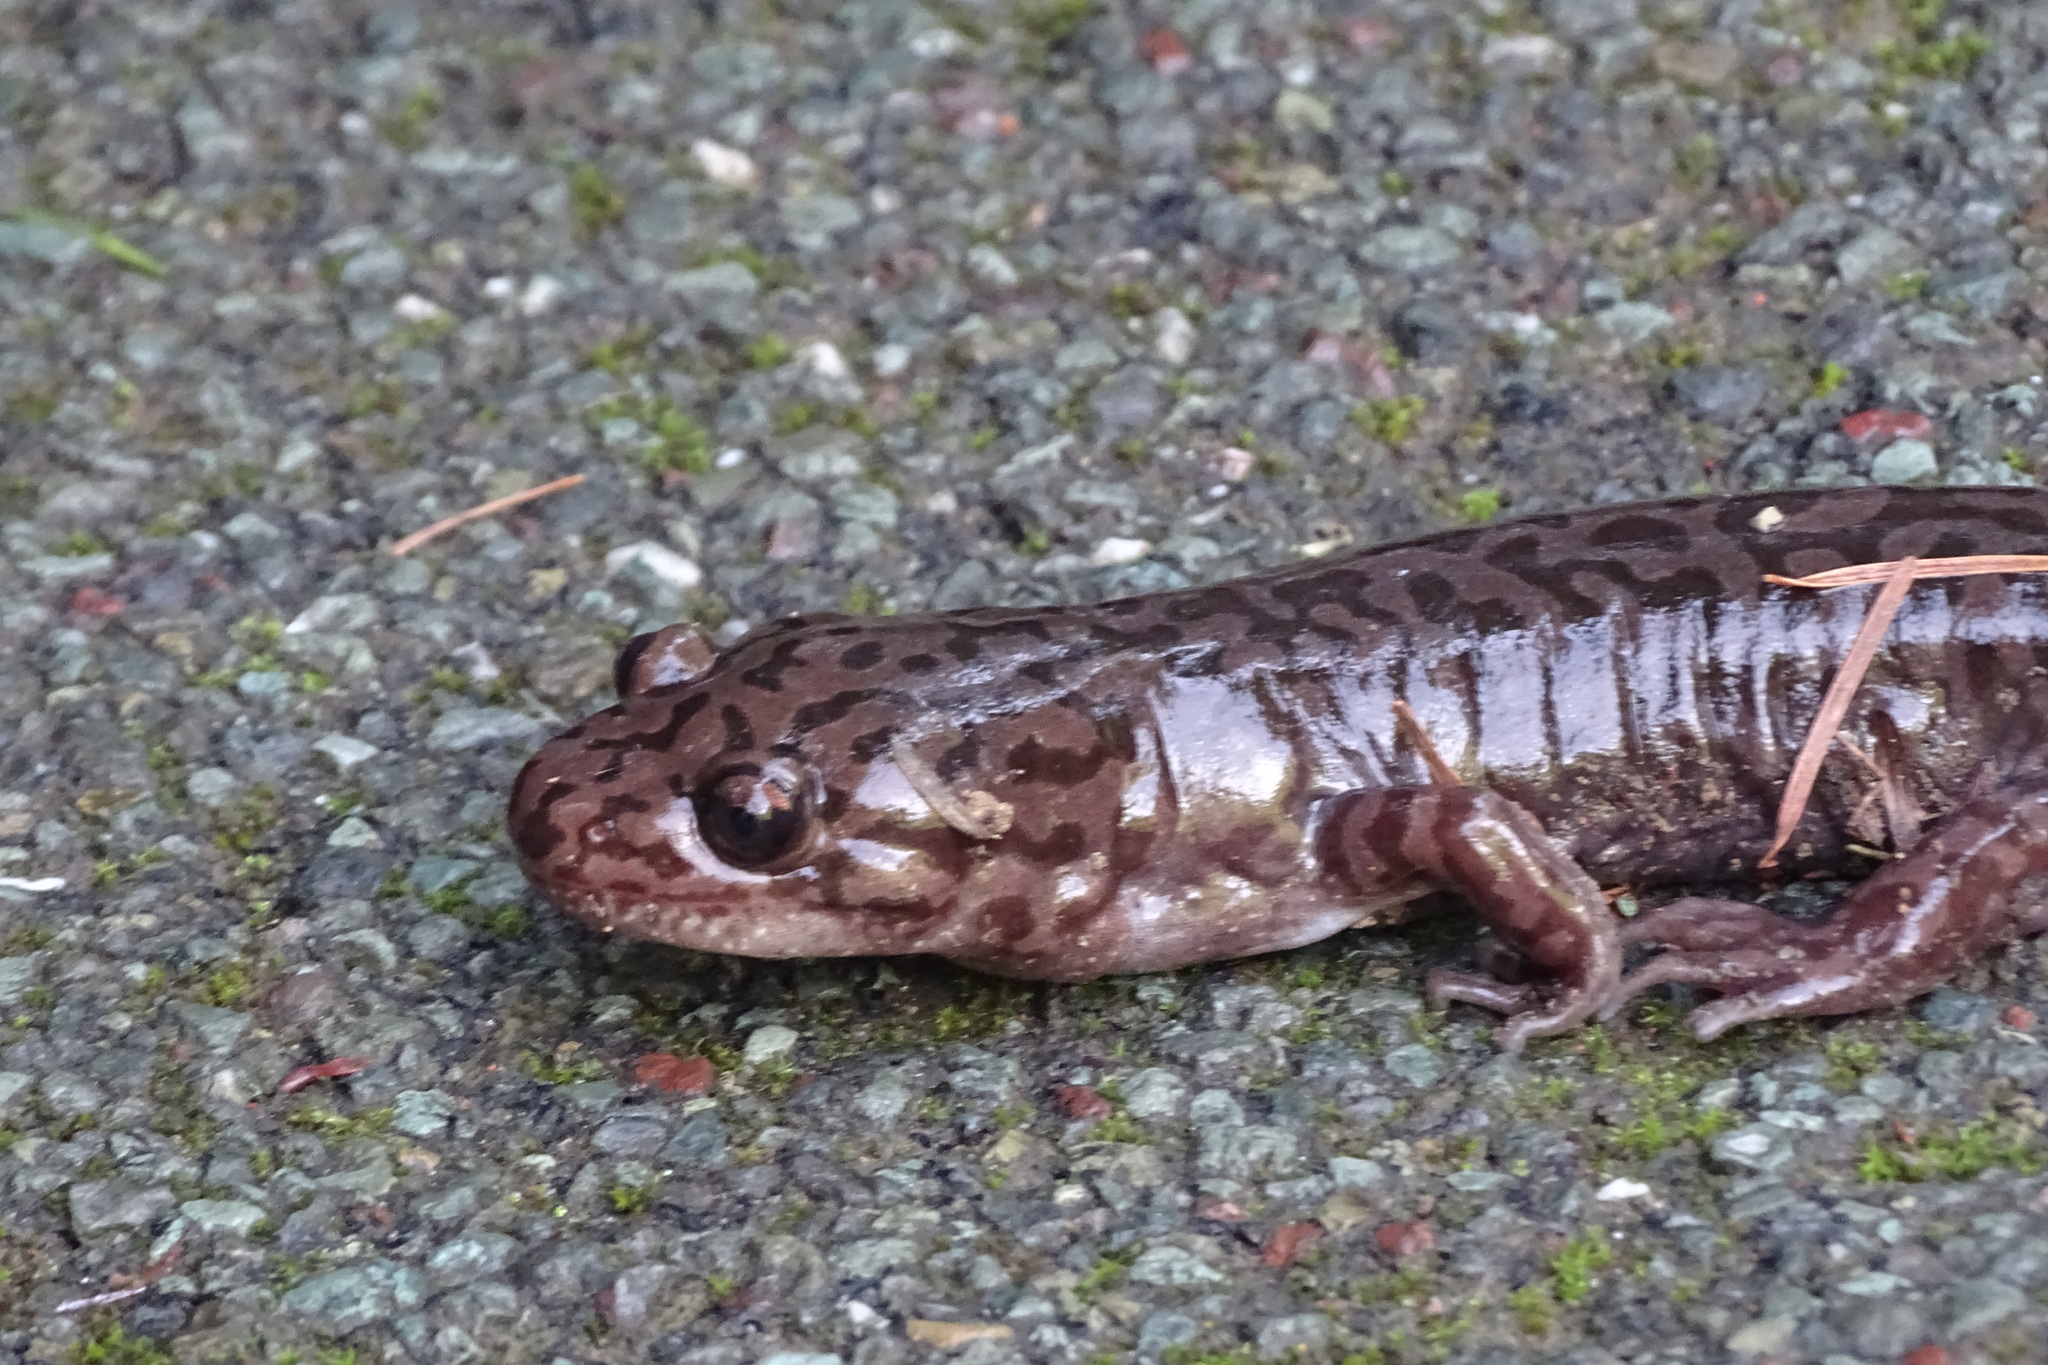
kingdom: Animalia
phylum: Chordata
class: Amphibia
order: Caudata
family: Ambystomatidae
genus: Dicamptodon
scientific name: Dicamptodon tenebrosus
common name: Coastal giant salamander
